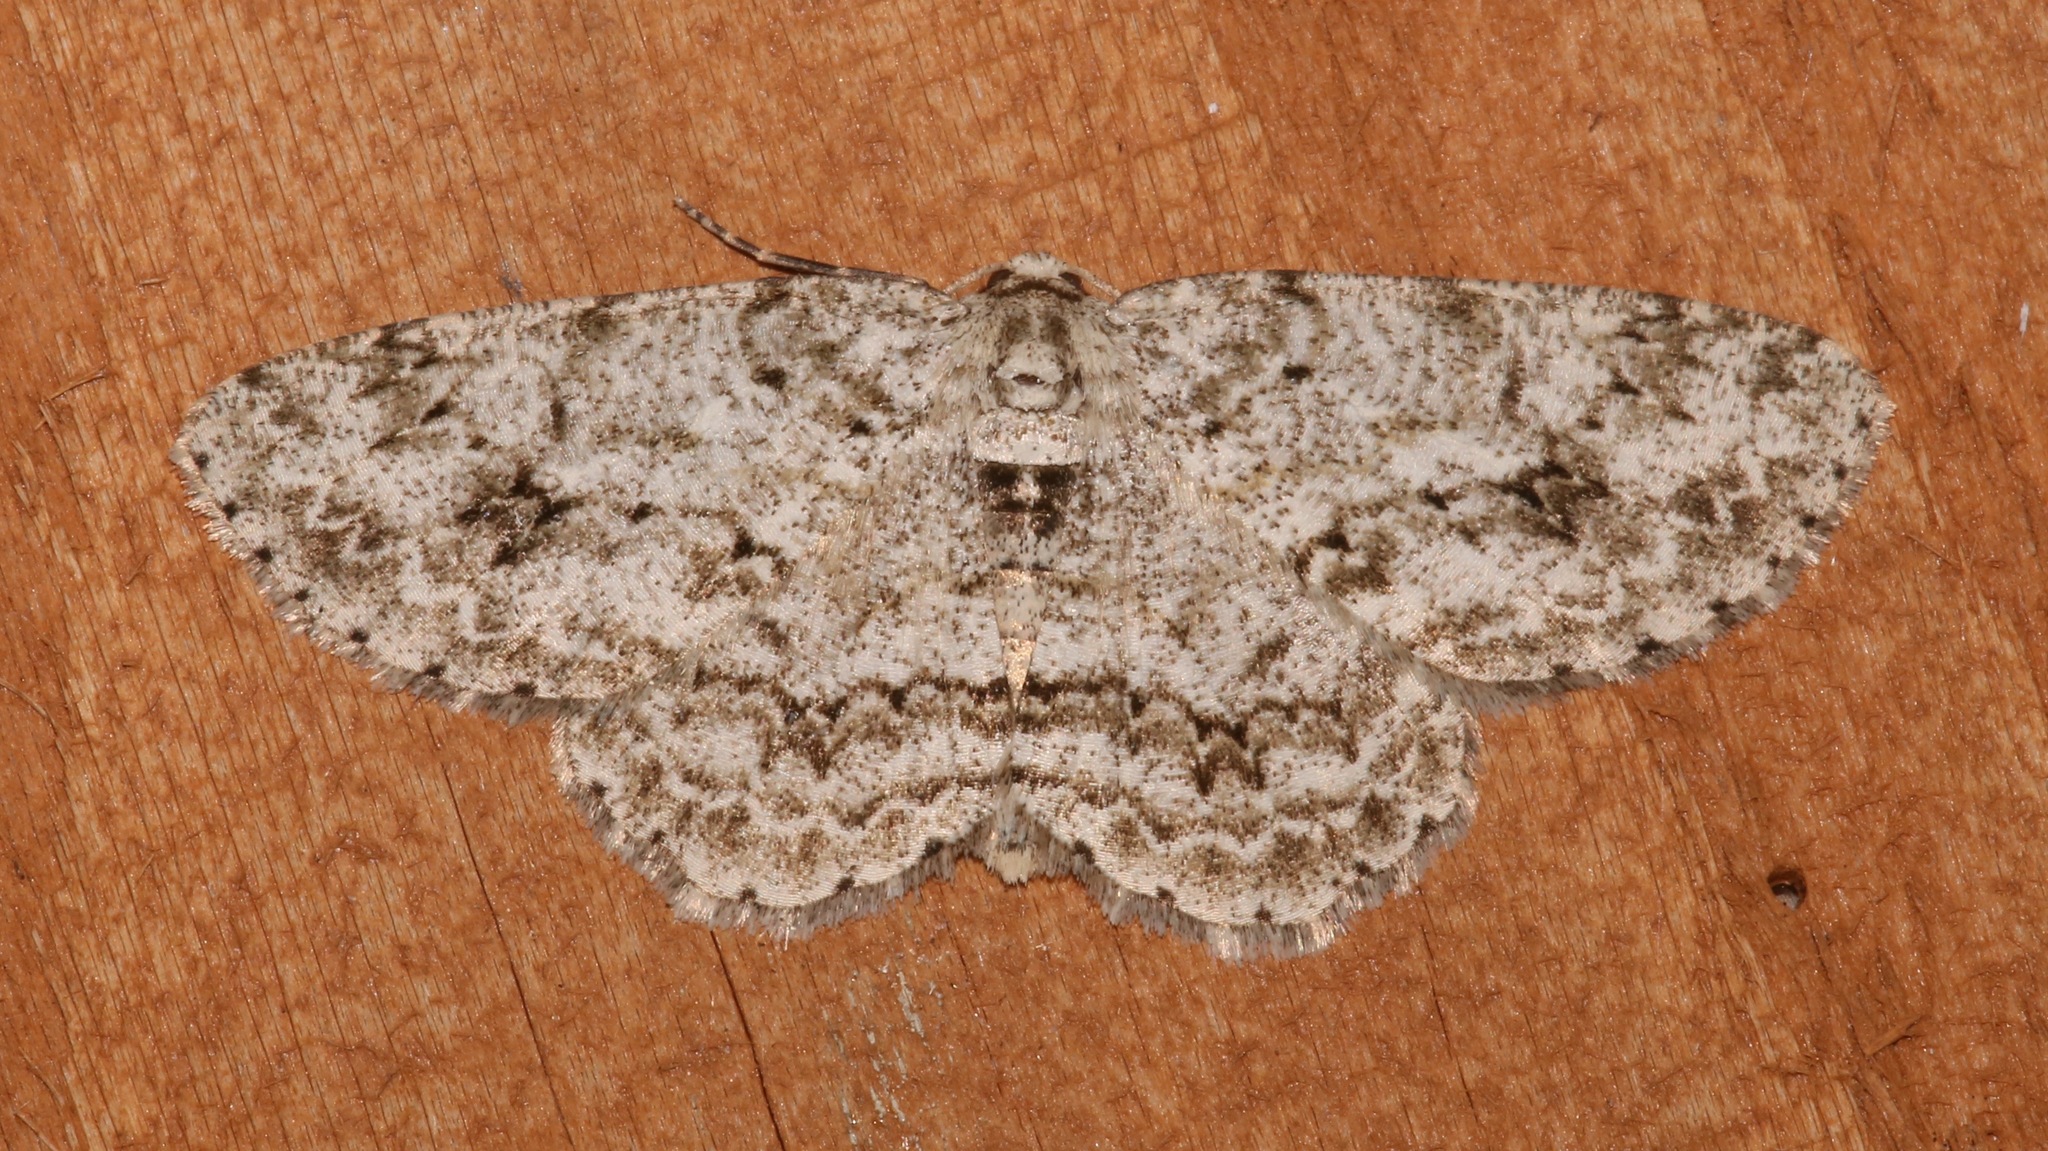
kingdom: Animalia
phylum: Arthropoda
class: Insecta
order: Lepidoptera
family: Geometridae
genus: Ectropis
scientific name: Ectropis crepuscularia
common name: Engrailed
